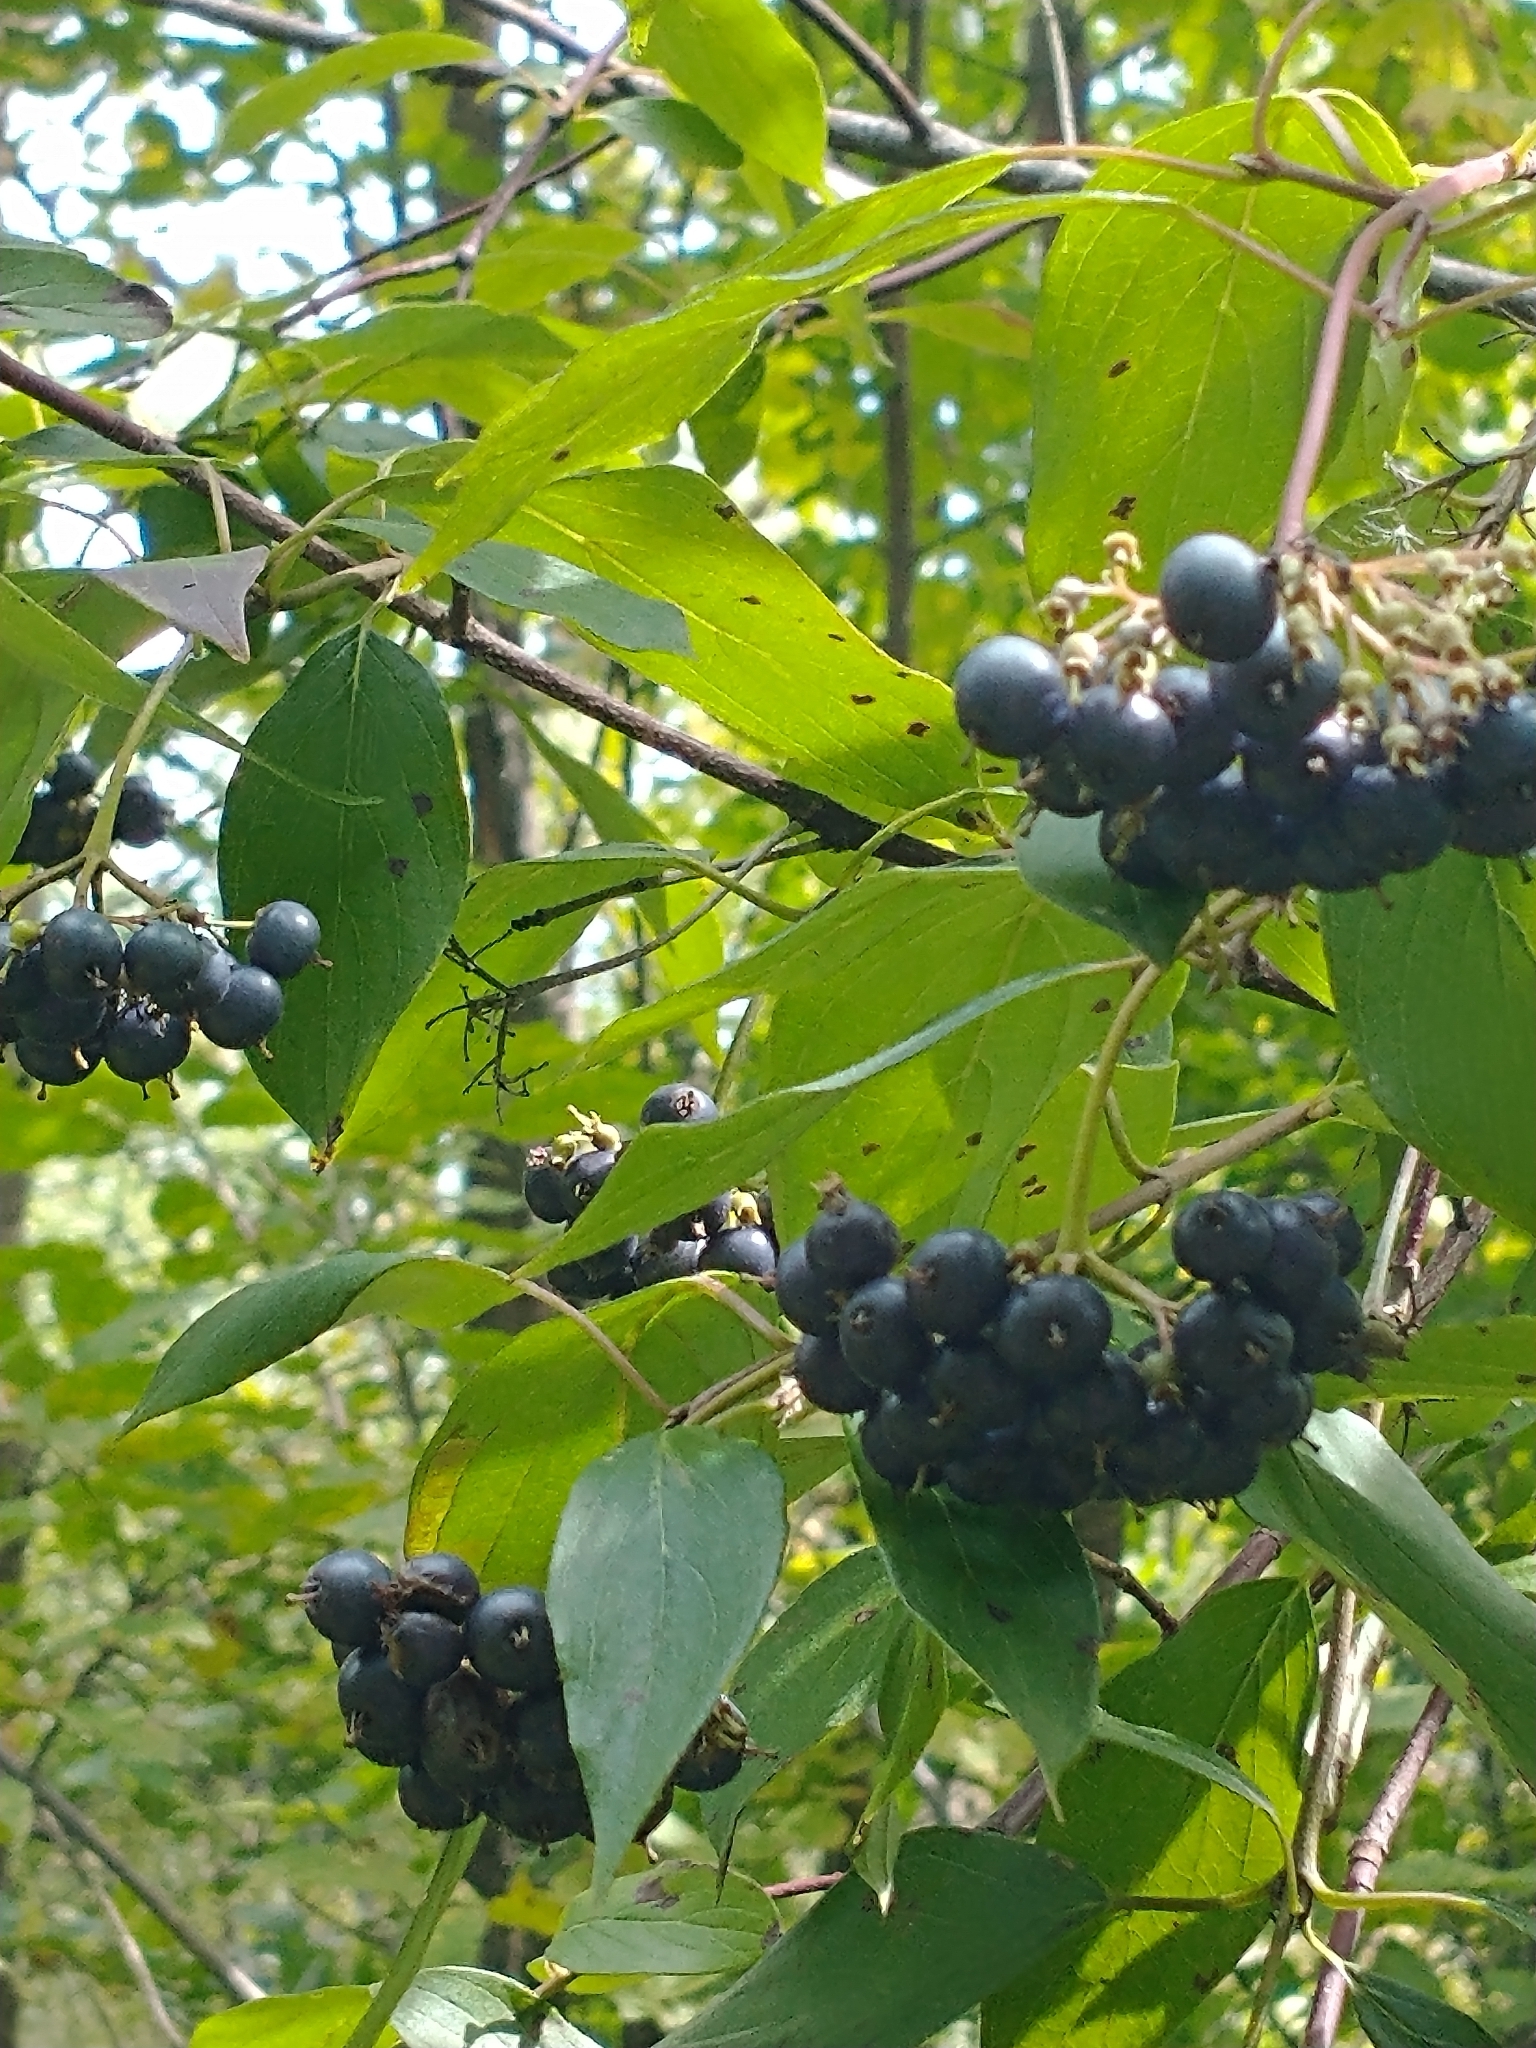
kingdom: Plantae
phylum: Tracheophyta
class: Magnoliopsida
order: Cornales
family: Cornaceae
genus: Cornus
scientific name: Cornus amomum
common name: Silky dogwood
